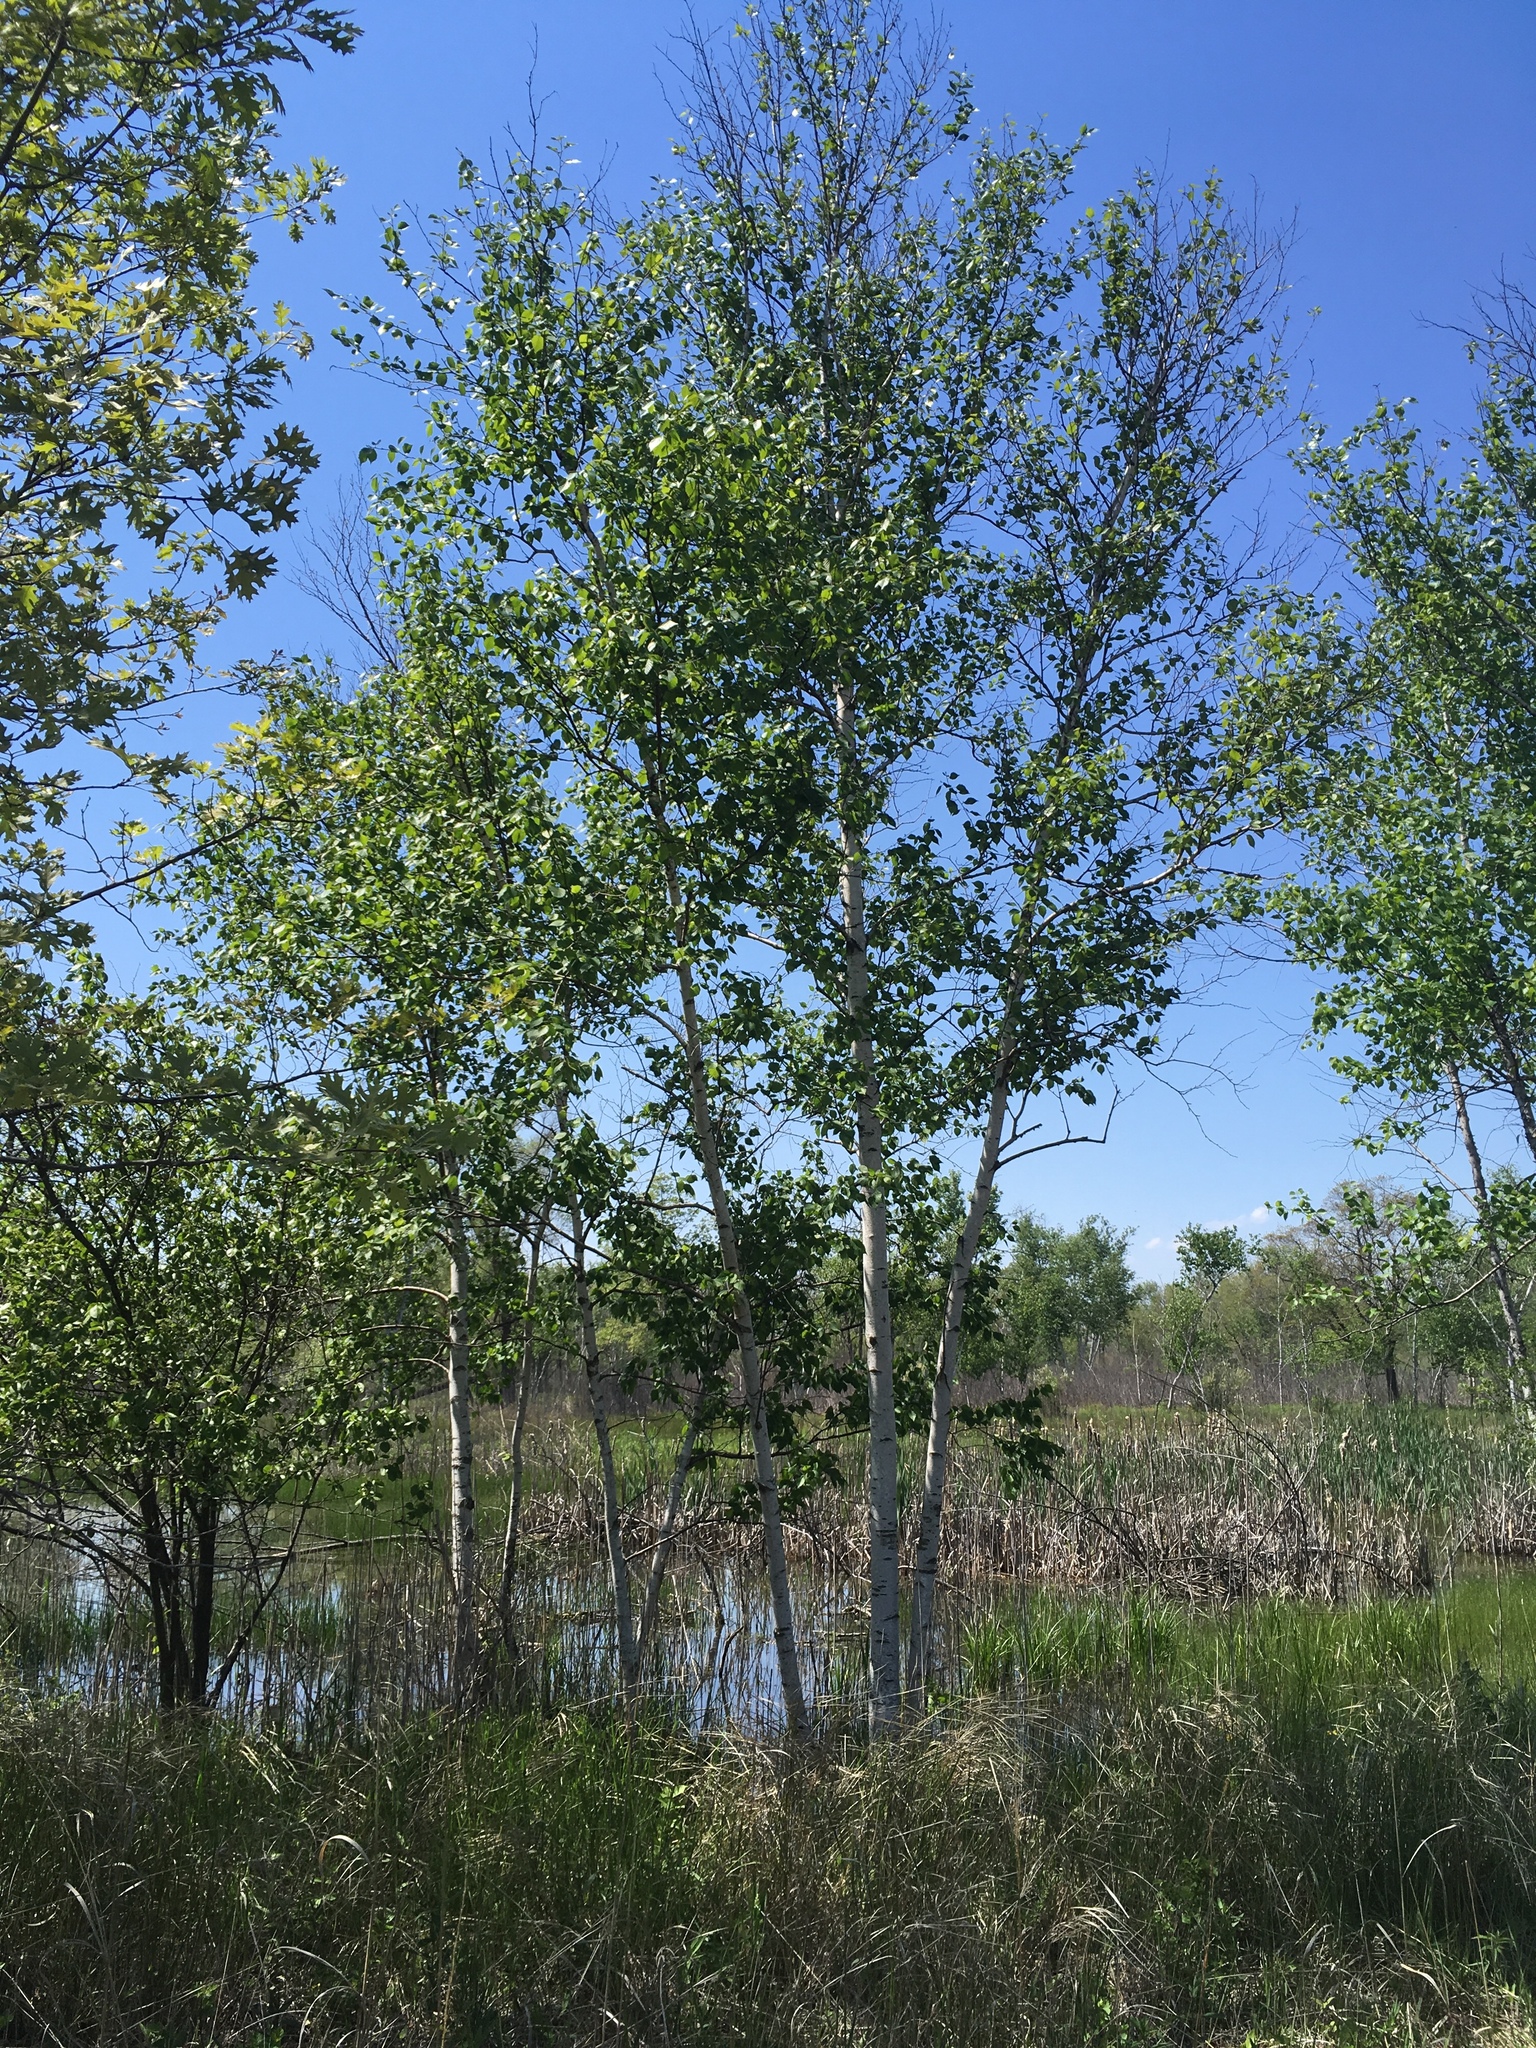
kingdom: Plantae
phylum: Tracheophyta
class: Magnoliopsida
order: Fagales
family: Betulaceae
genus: Betula
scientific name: Betula papyrifera
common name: Paper birch
